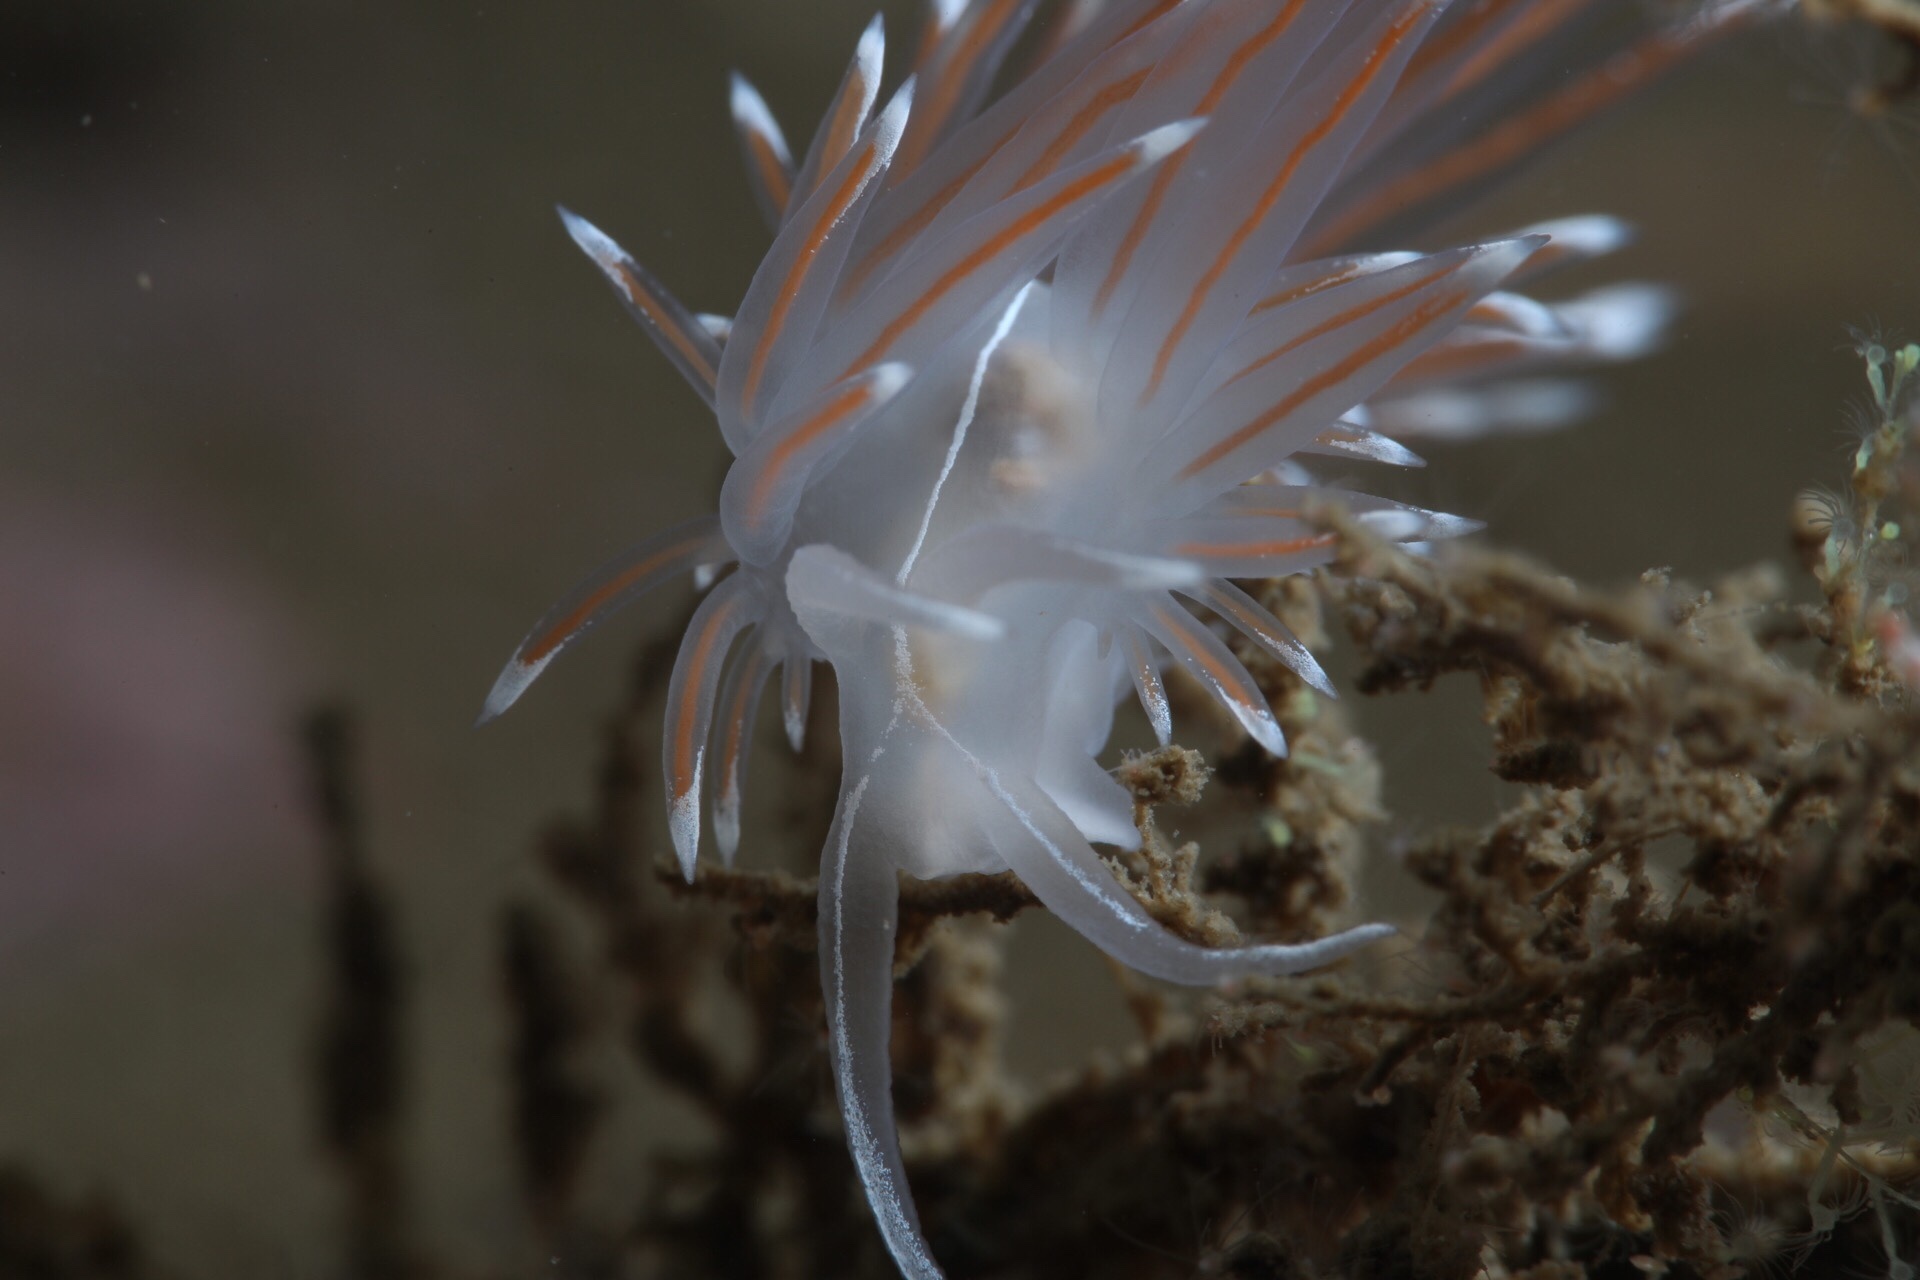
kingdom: Animalia
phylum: Mollusca
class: Gastropoda
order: Nudibranchia
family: Coryphellidae
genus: Coryphella
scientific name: Coryphella lineata
